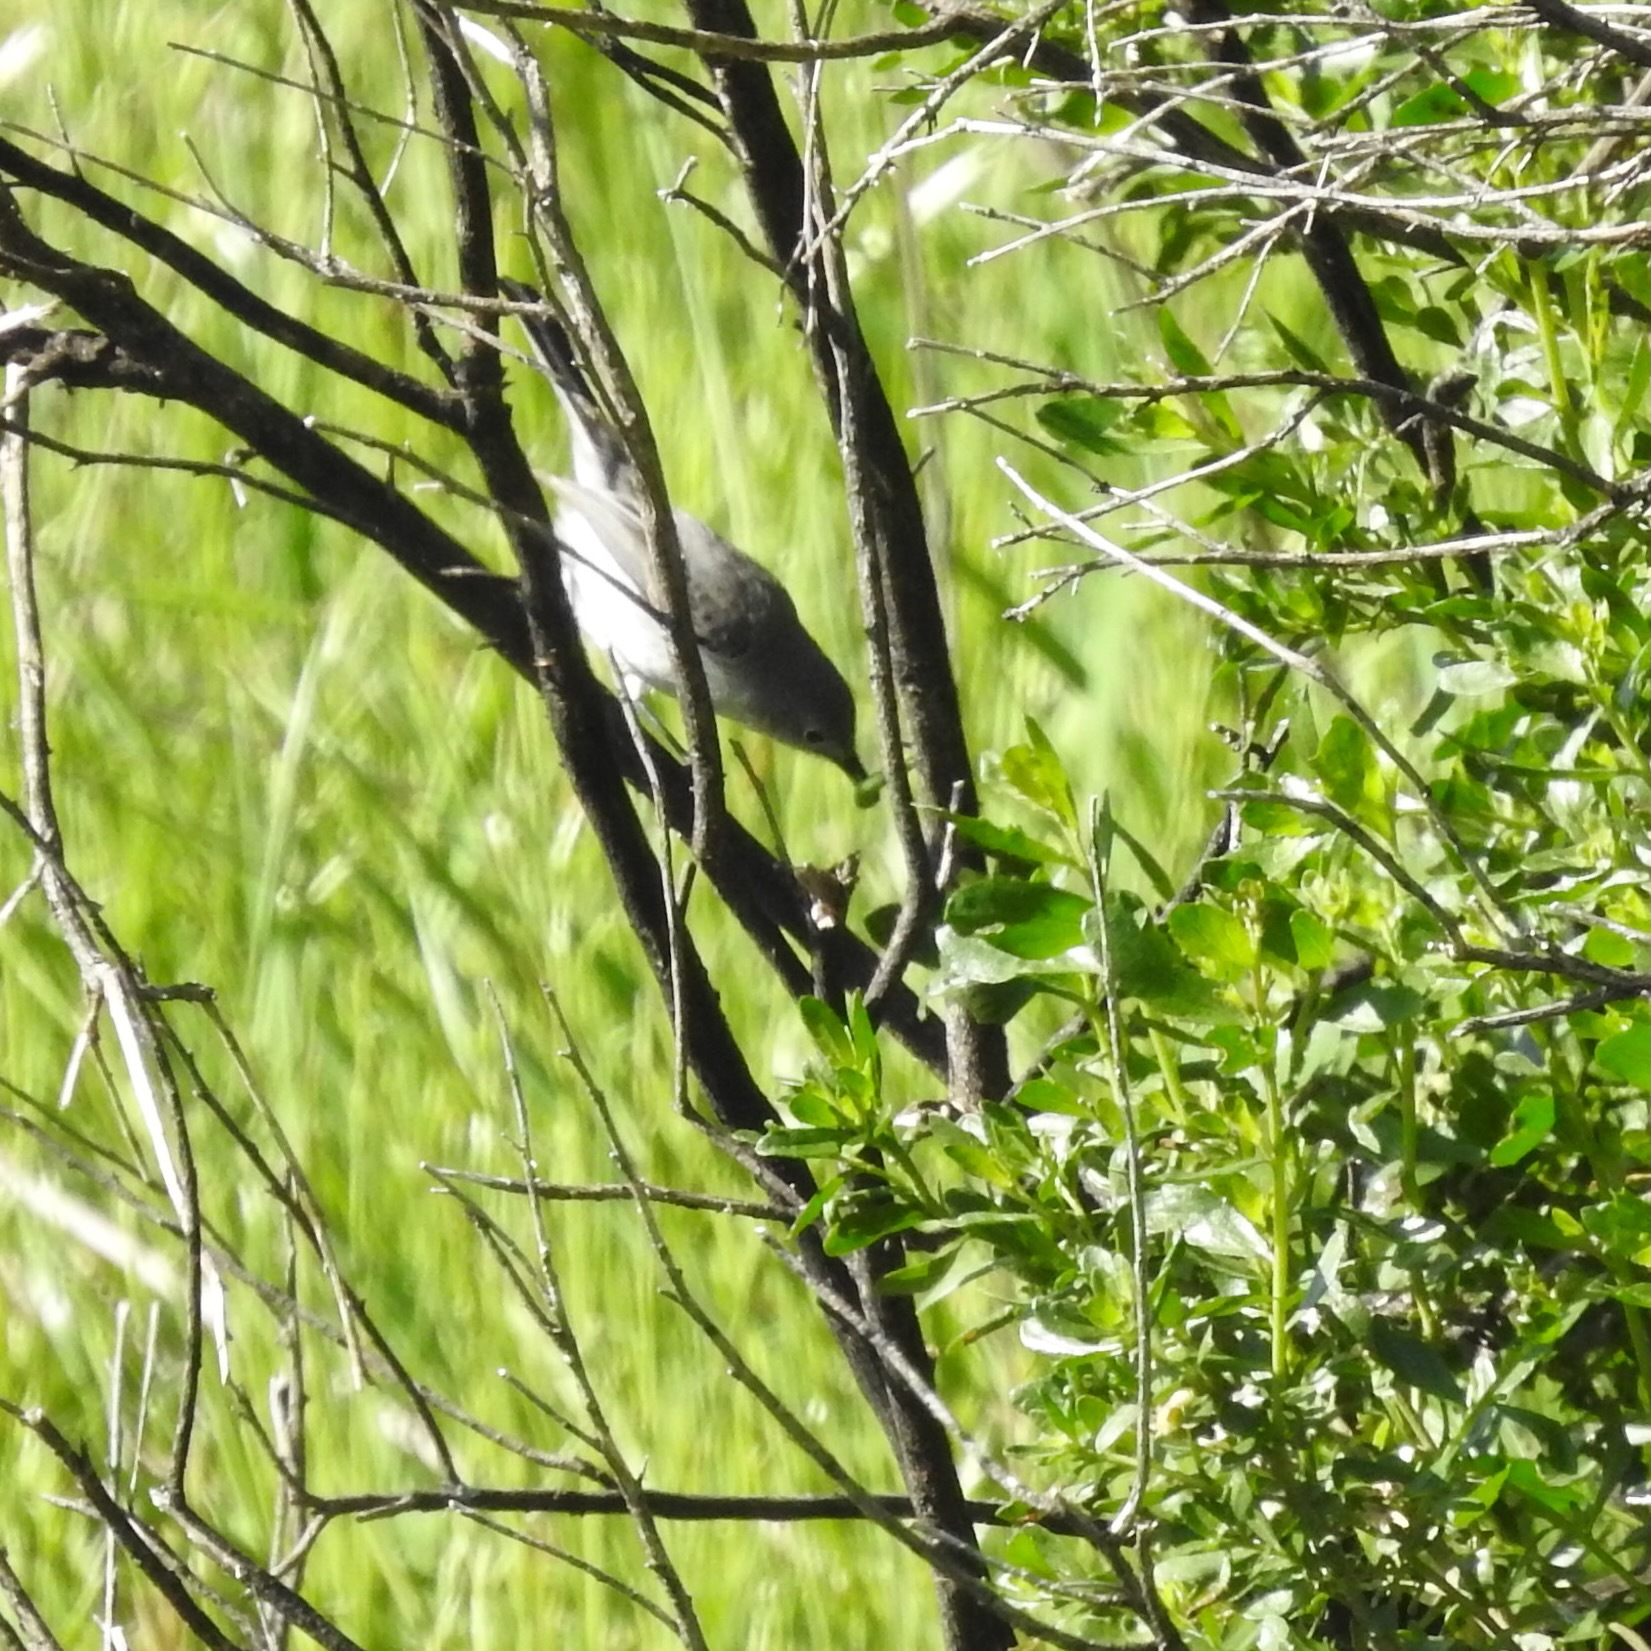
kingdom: Animalia
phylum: Chordata
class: Aves
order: Passeriformes
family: Polioptilidae
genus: Polioptila
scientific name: Polioptila caerulea
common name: Blue-gray gnatcatcher
